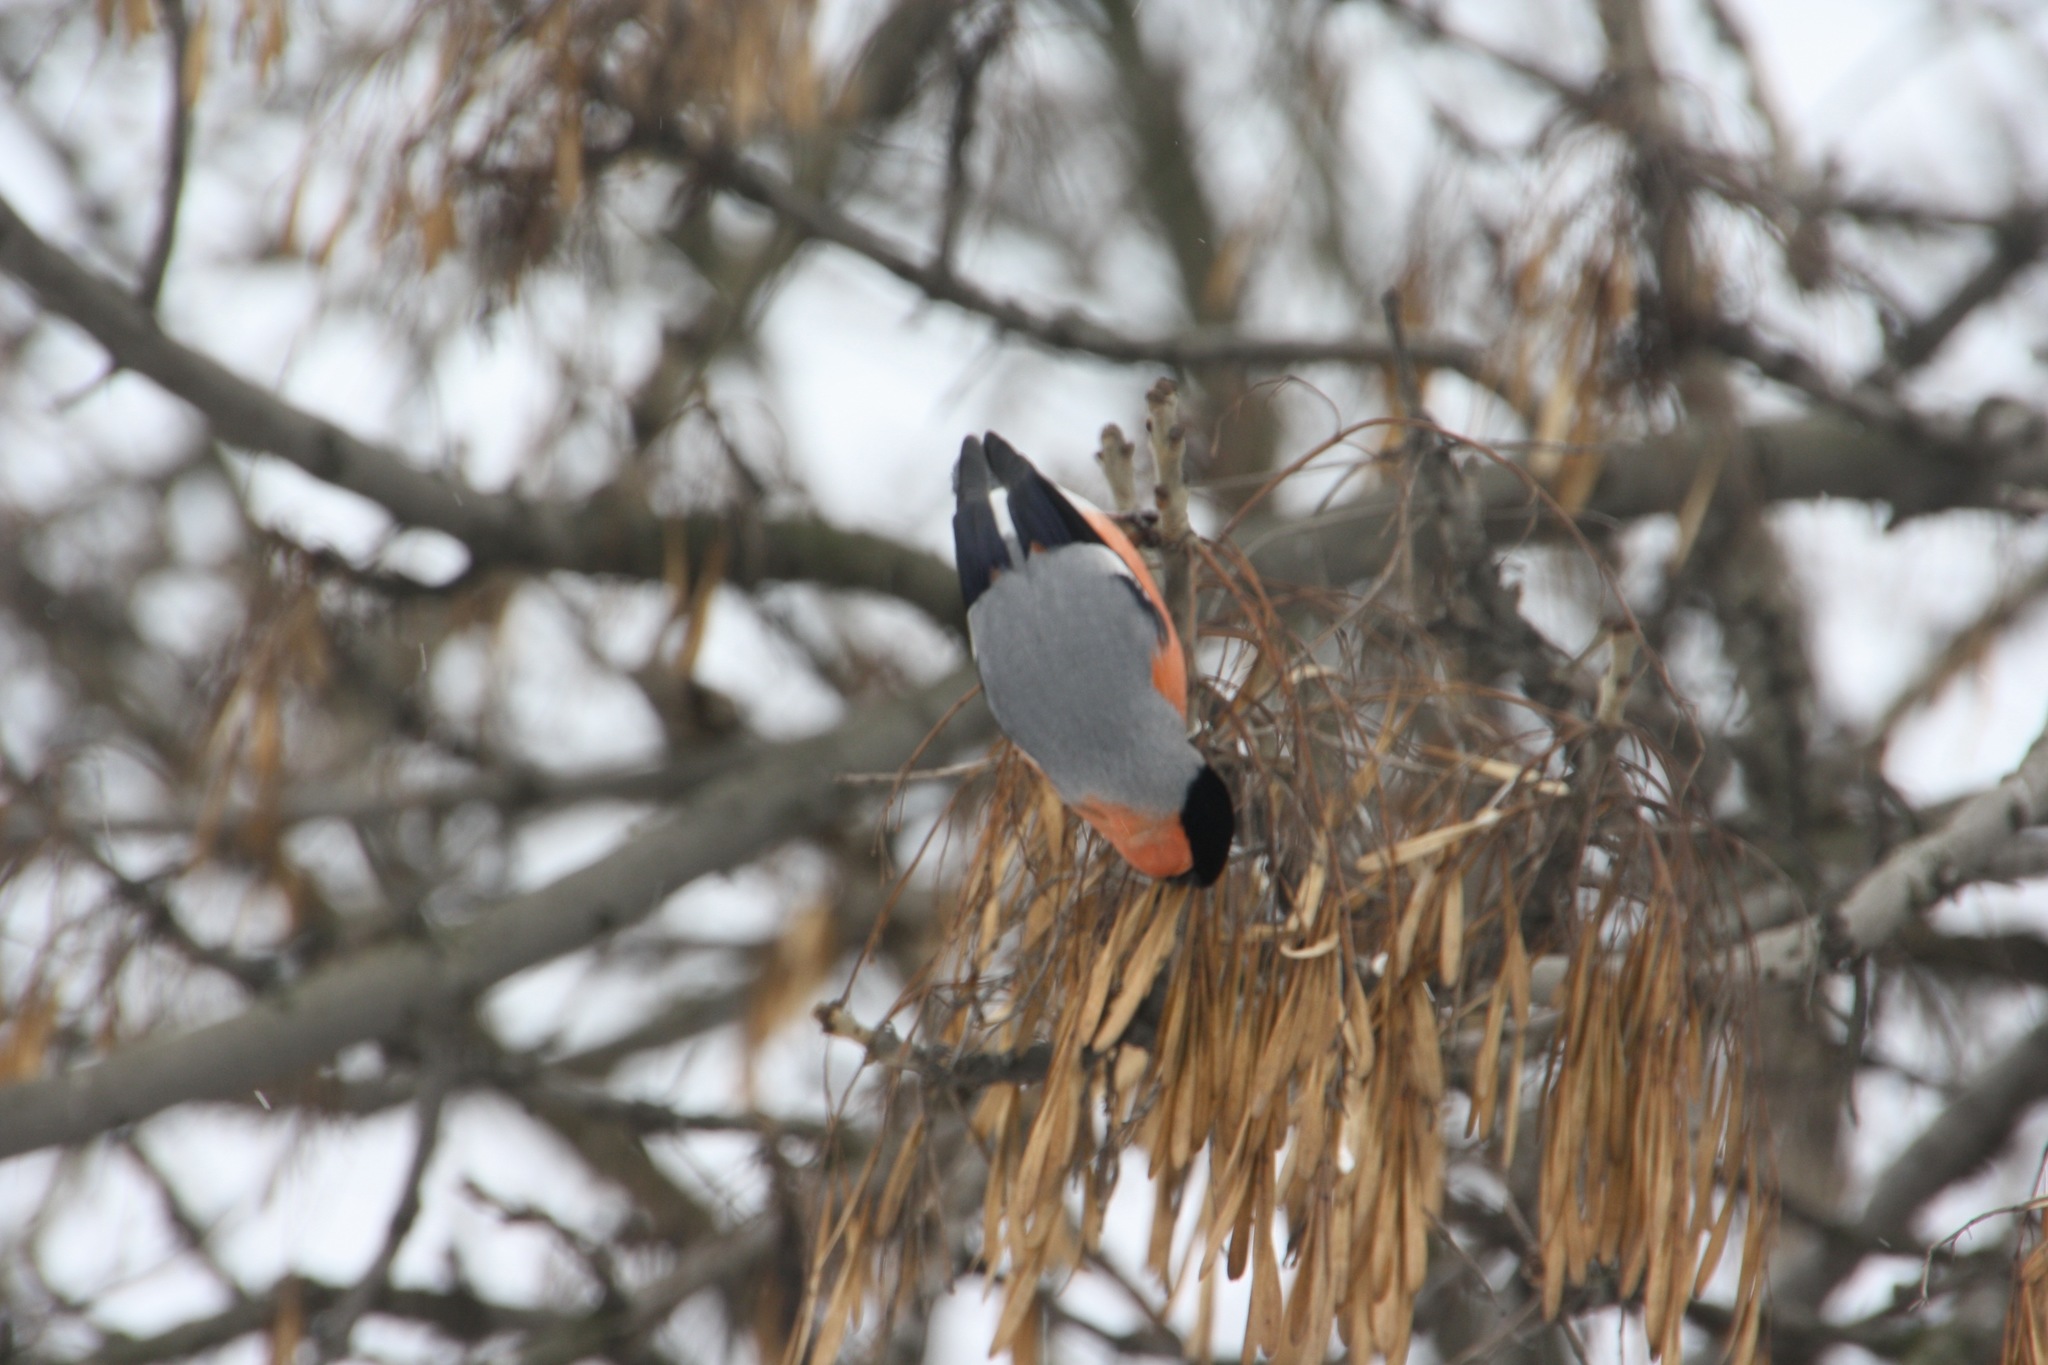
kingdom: Animalia
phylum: Chordata
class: Aves
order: Passeriformes
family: Fringillidae
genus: Pyrrhula
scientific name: Pyrrhula pyrrhula
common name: Eurasian bullfinch
